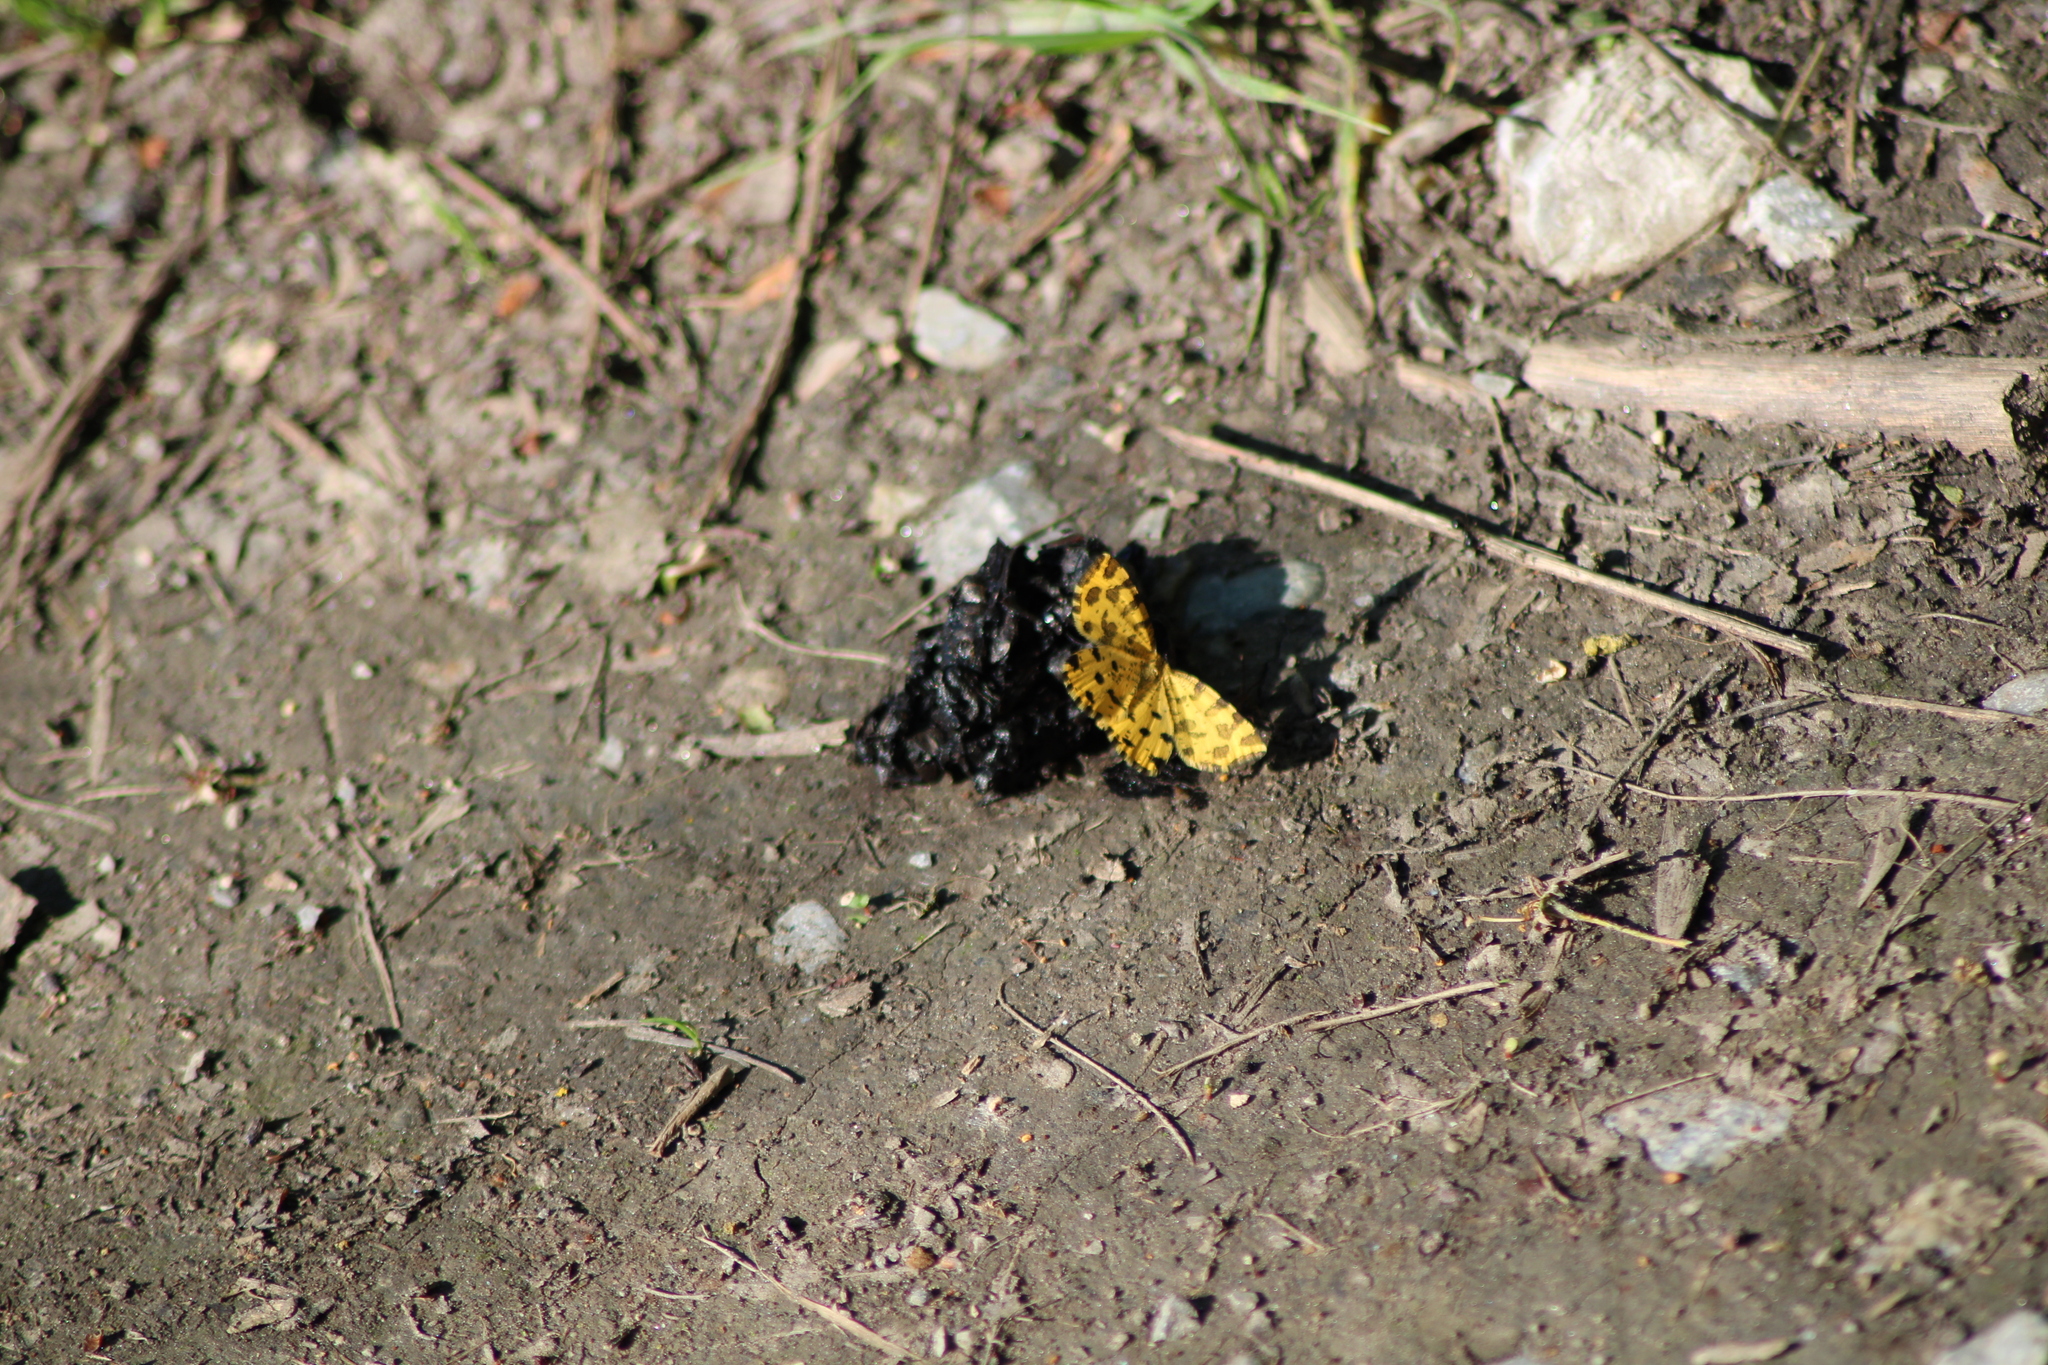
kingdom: Animalia
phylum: Arthropoda
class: Insecta
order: Lepidoptera
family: Geometridae
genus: Pseudopanthera
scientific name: Pseudopanthera macularia
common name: Speckled yellow
